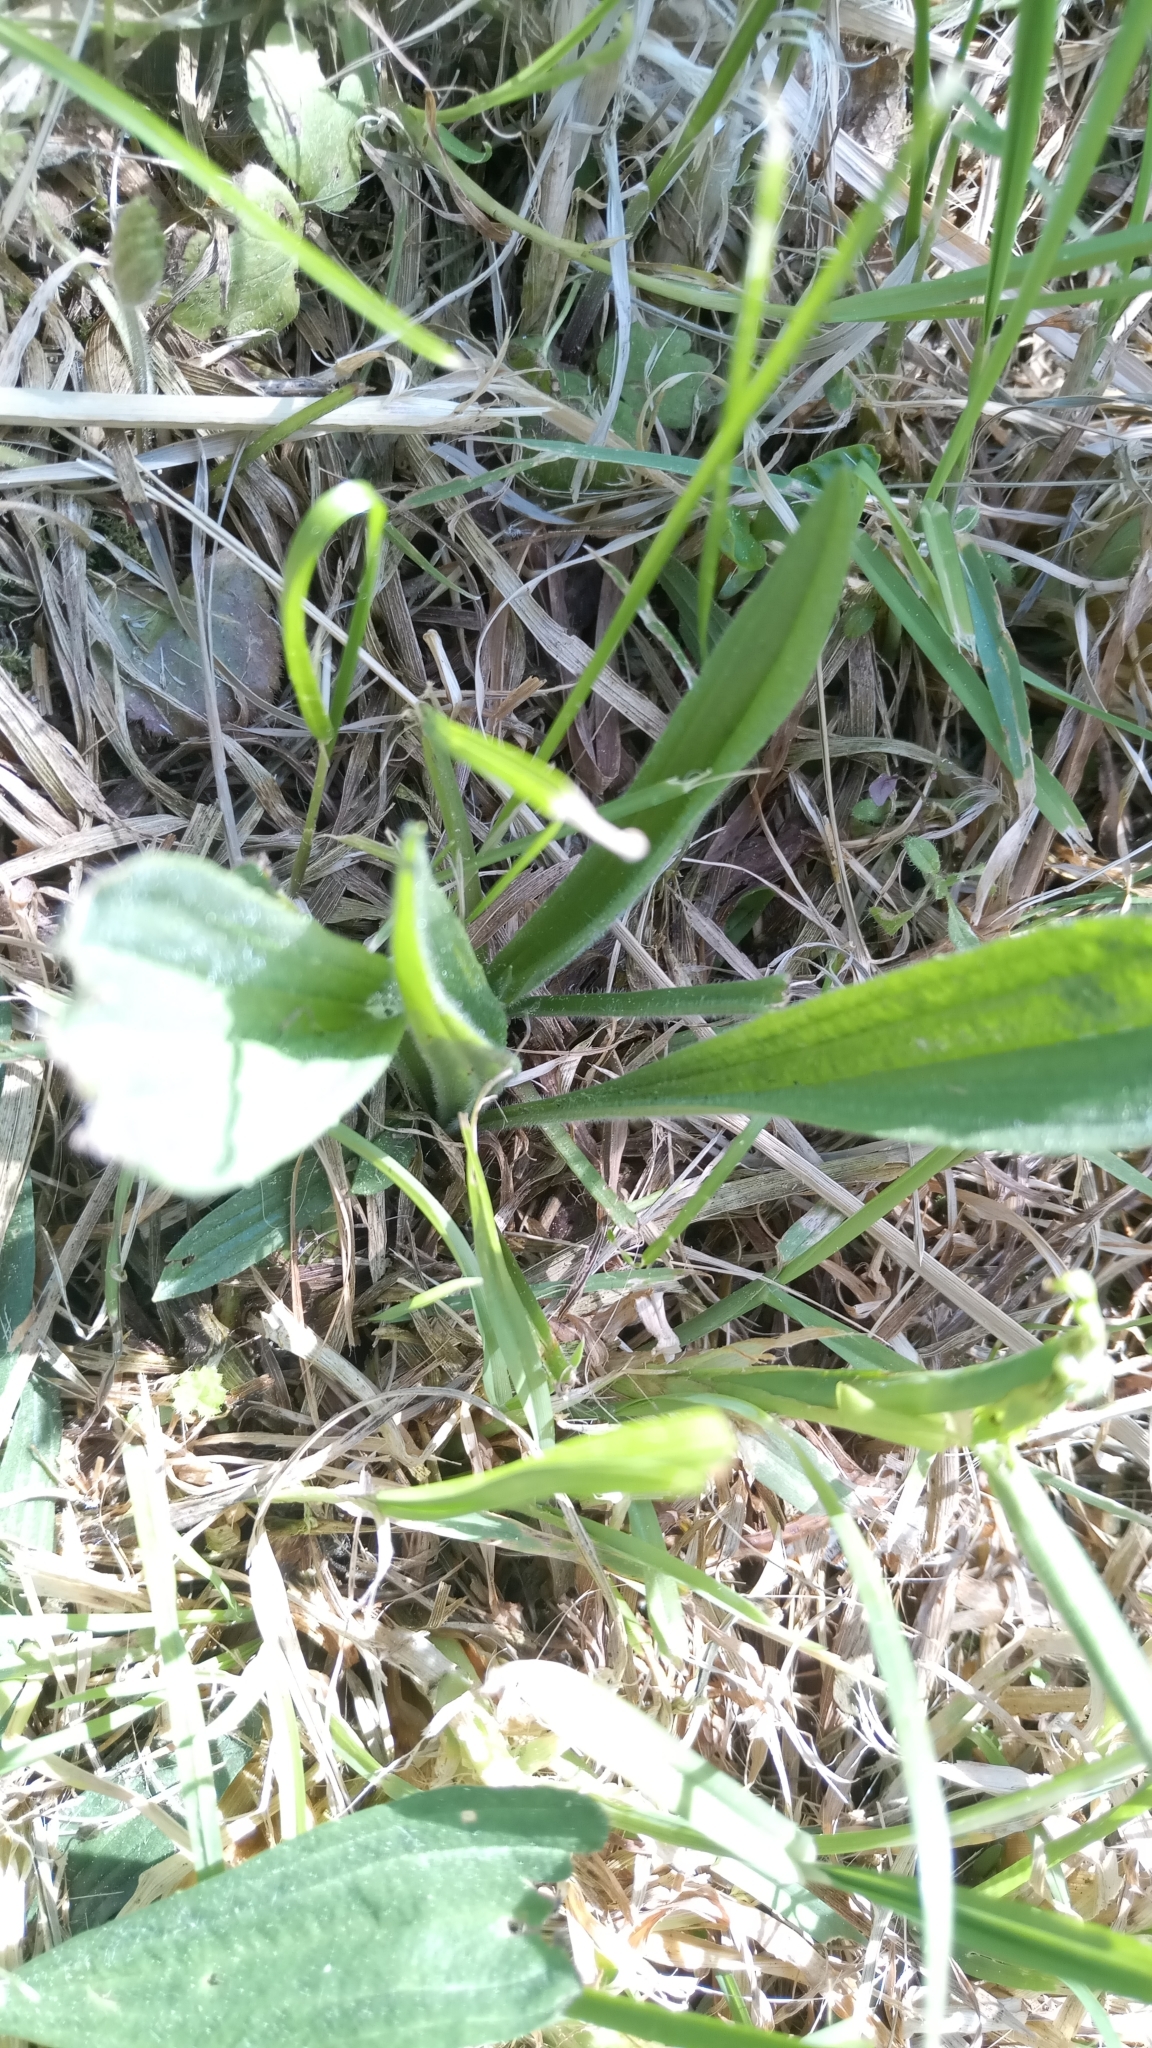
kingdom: Plantae
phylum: Tracheophyta
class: Magnoliopsida
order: Lamiales
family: Plantaginaceae
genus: Plantago
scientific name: Plantago lanceolata
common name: Ribwort plantain
